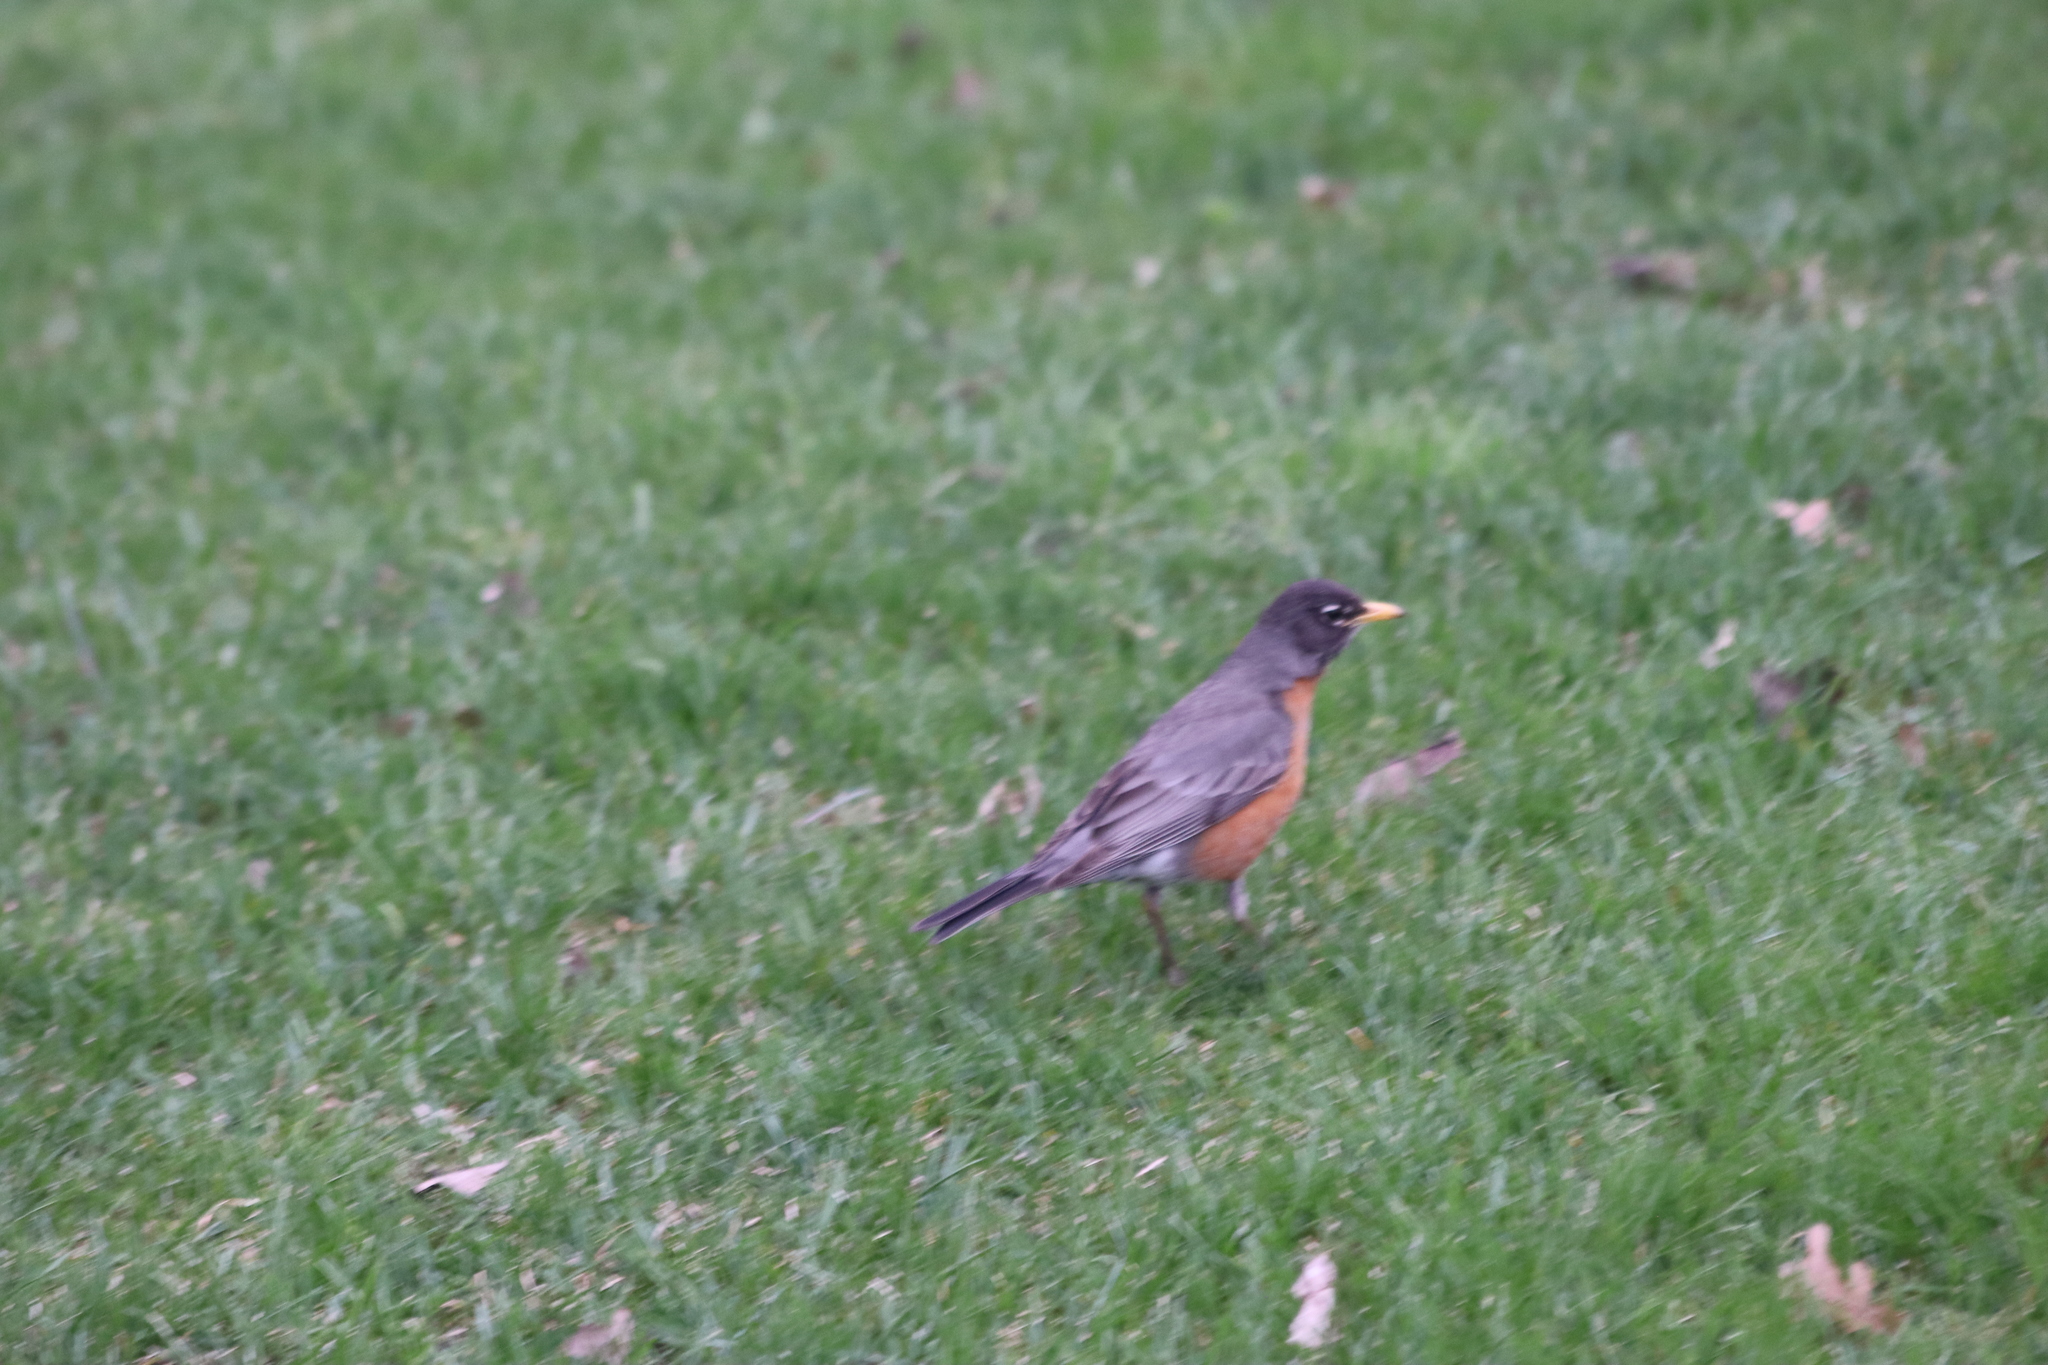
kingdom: Animalia
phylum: Chordata
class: Aves
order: Passeriformes
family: Turdidae
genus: Turdus
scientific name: Turdus migratorius
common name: American robin
